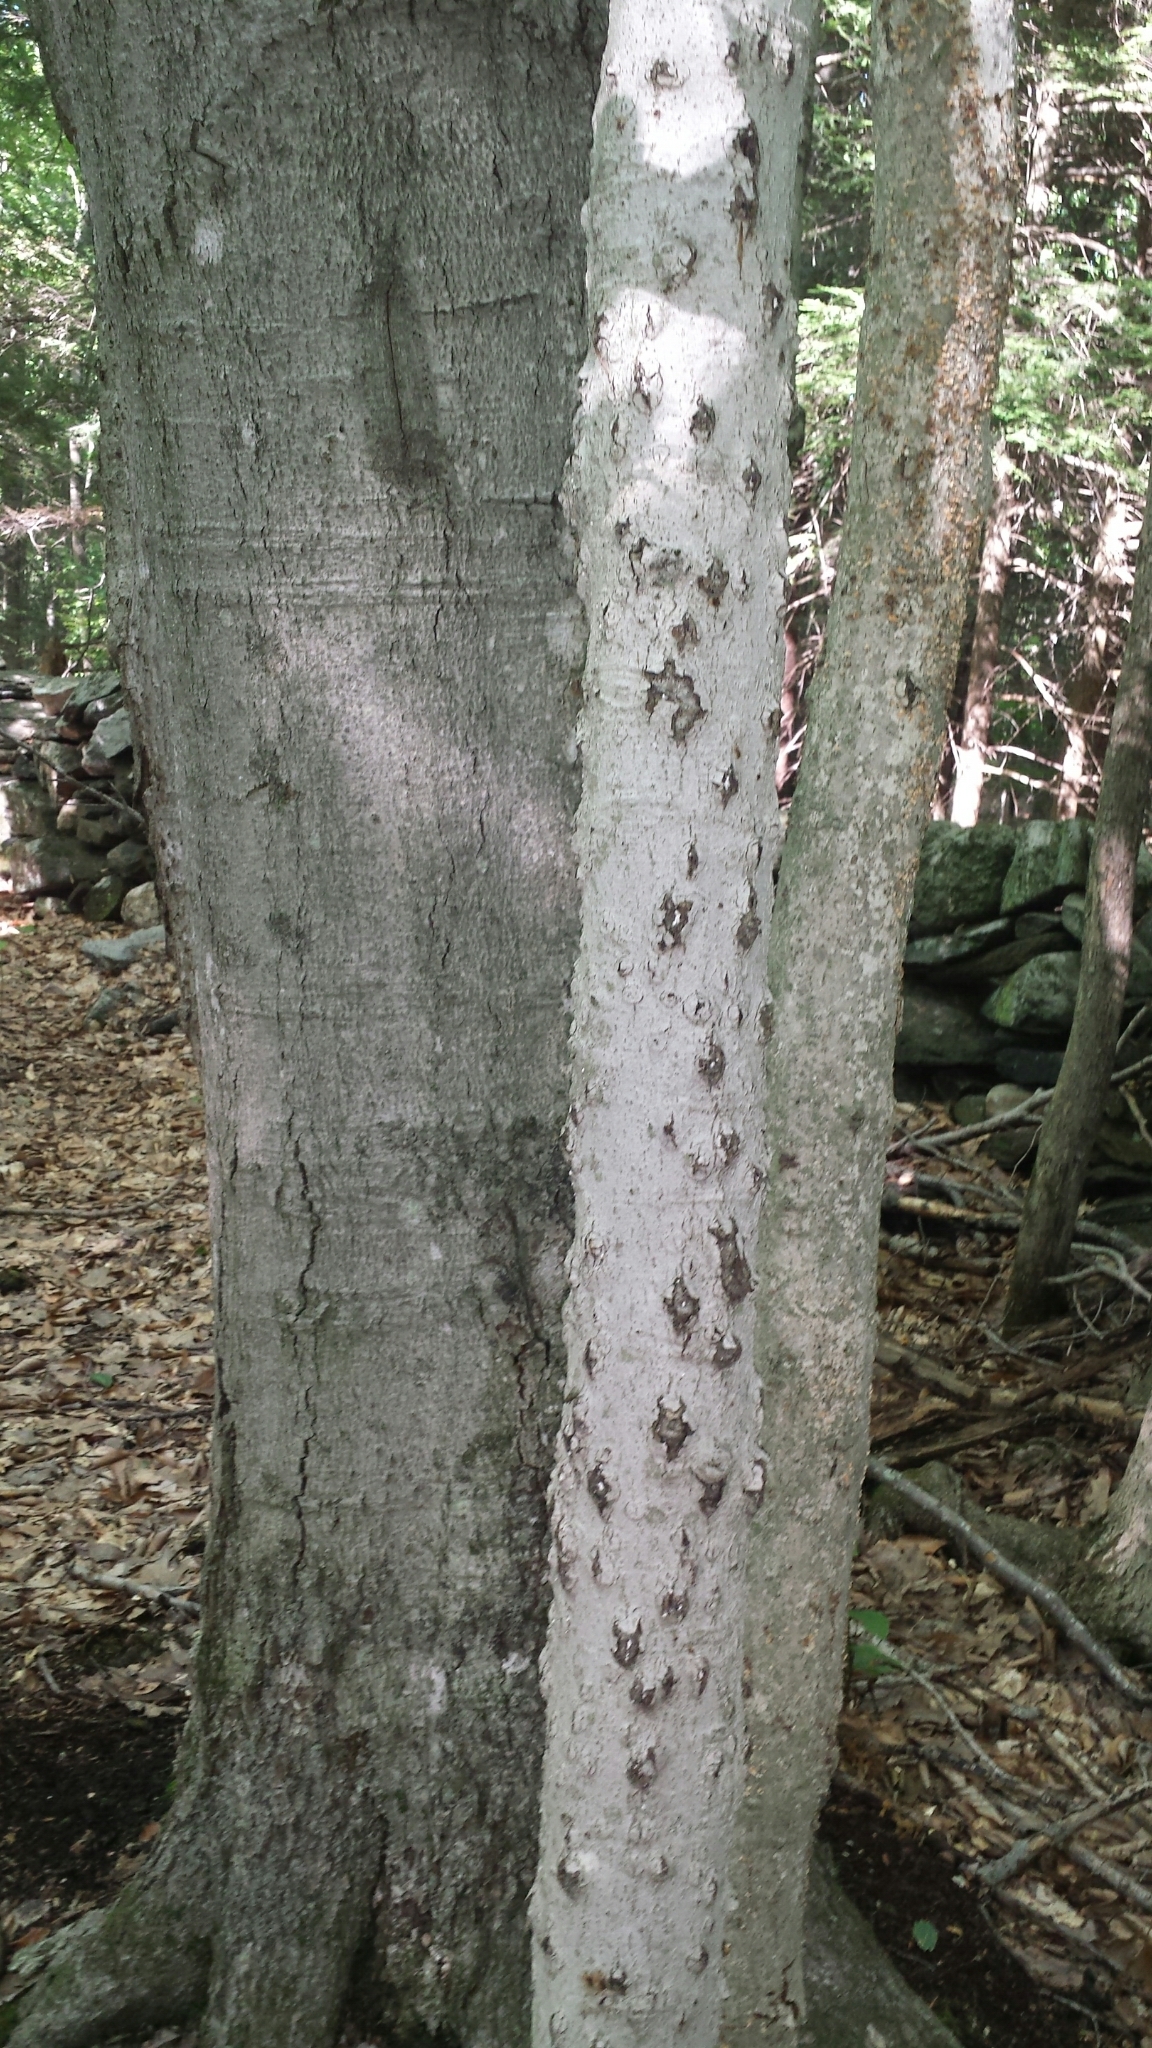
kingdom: Plantae
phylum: Tracheophyta
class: Magnoliopsida
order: Fagales
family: Fagaceae
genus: Fagus
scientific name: Fagus grandifolia
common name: American beech
